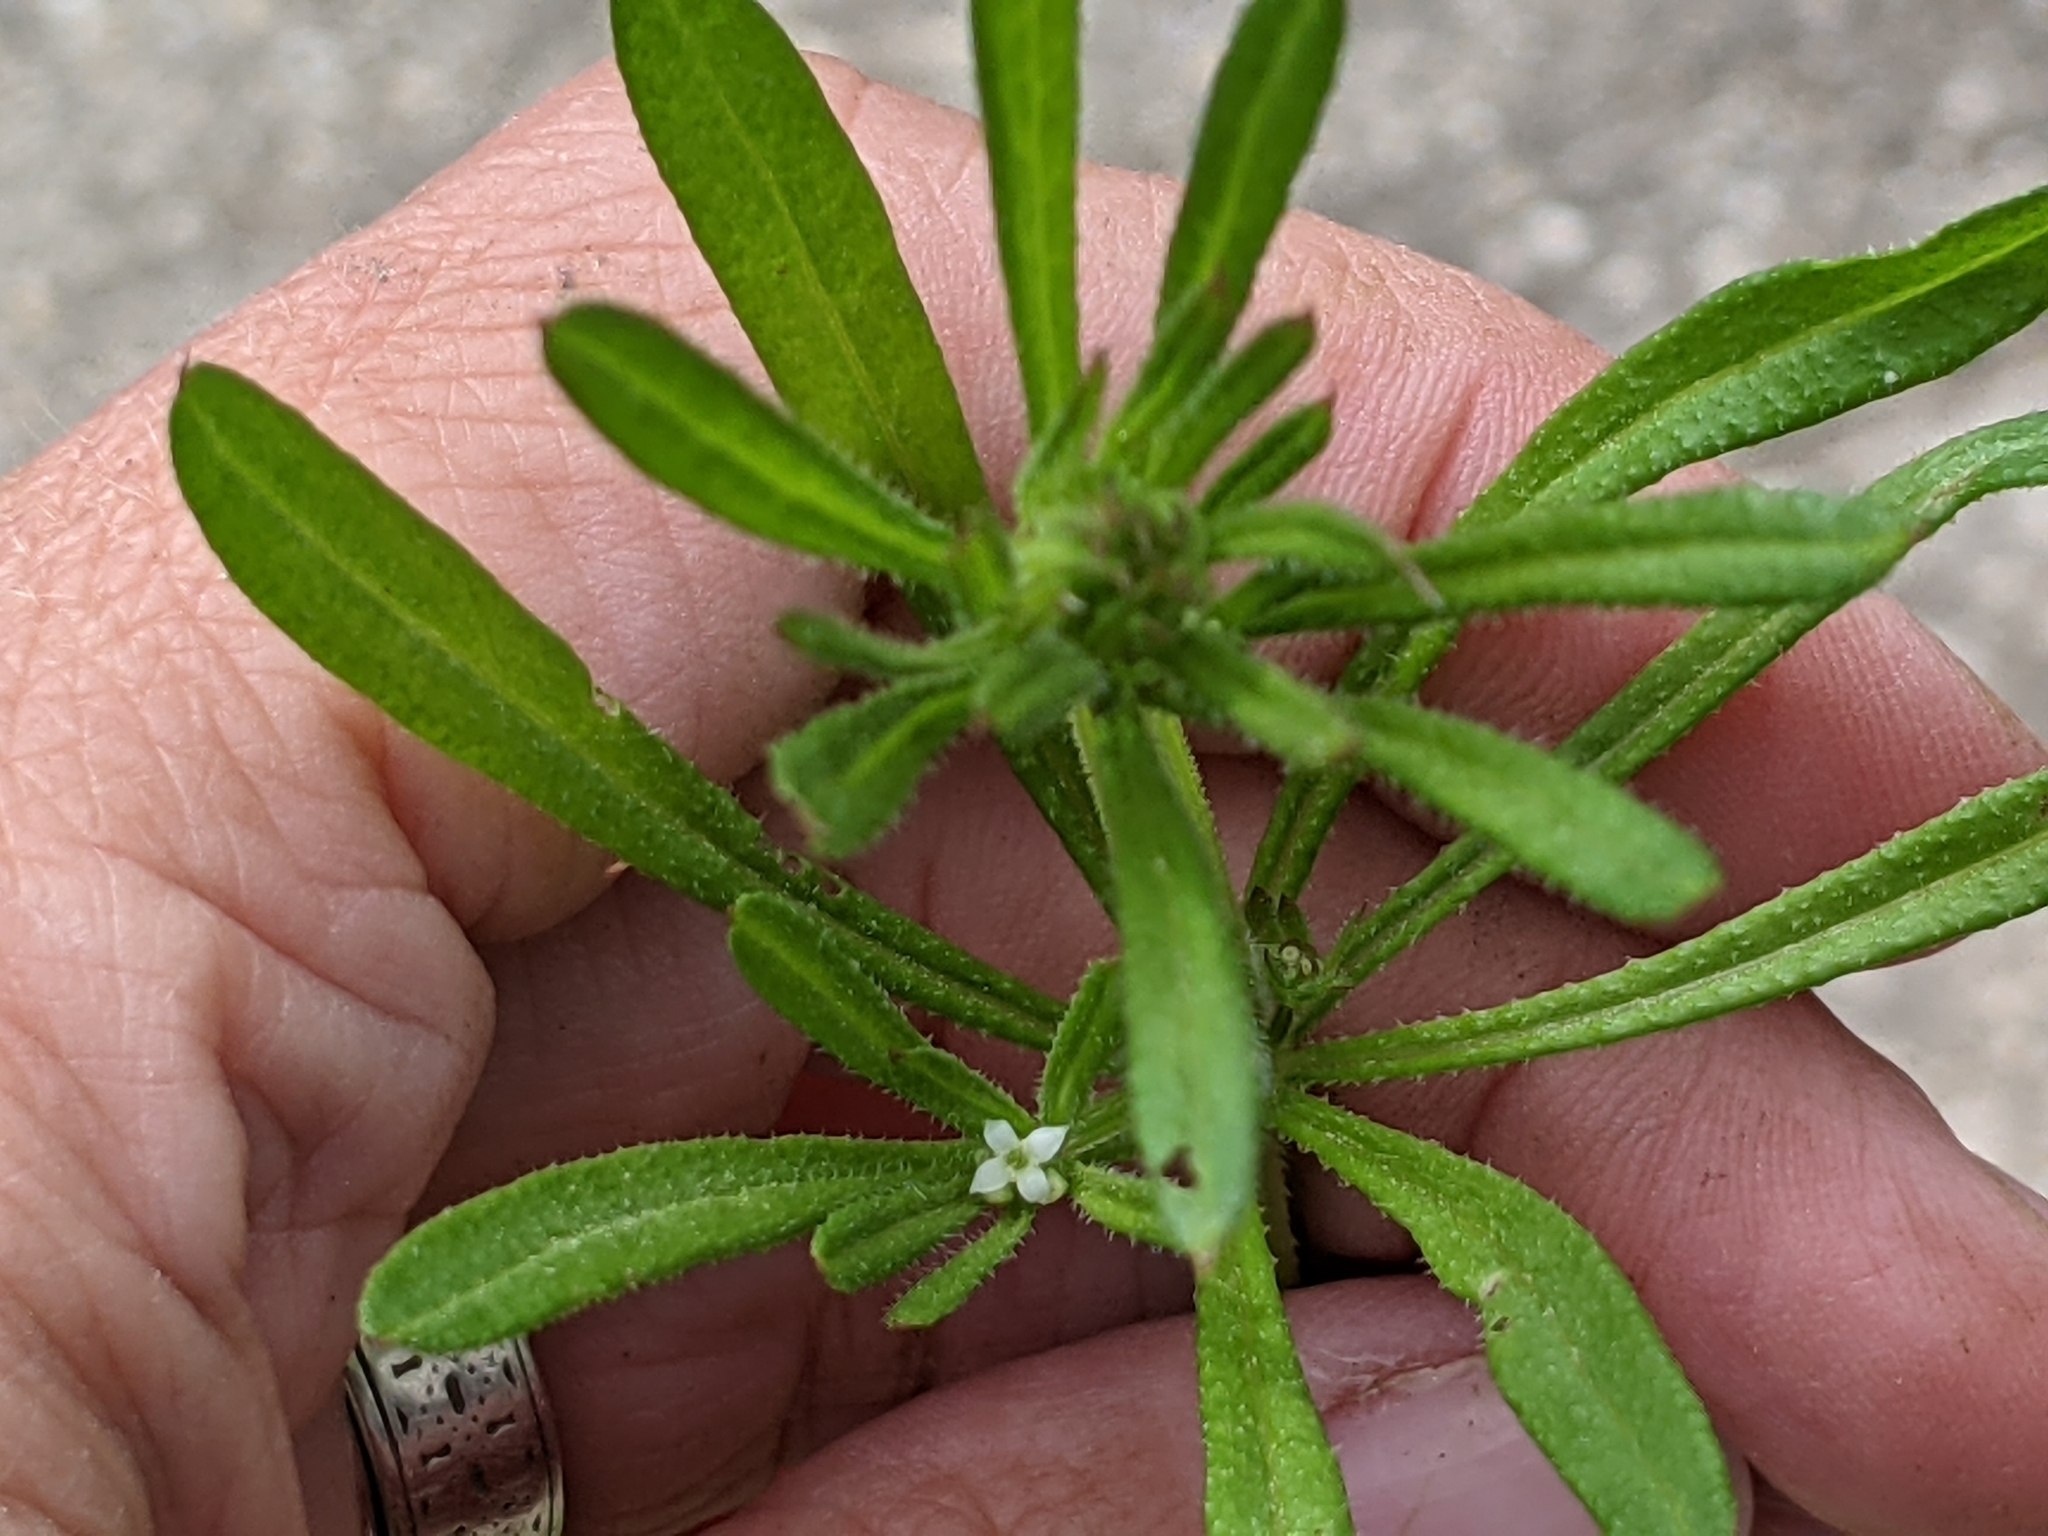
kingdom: Plantae
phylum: Tracheophyta
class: Magnoliopsida
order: Gentianales
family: Rubiaceae
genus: Galium
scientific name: Galium aparine
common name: Cleavers
